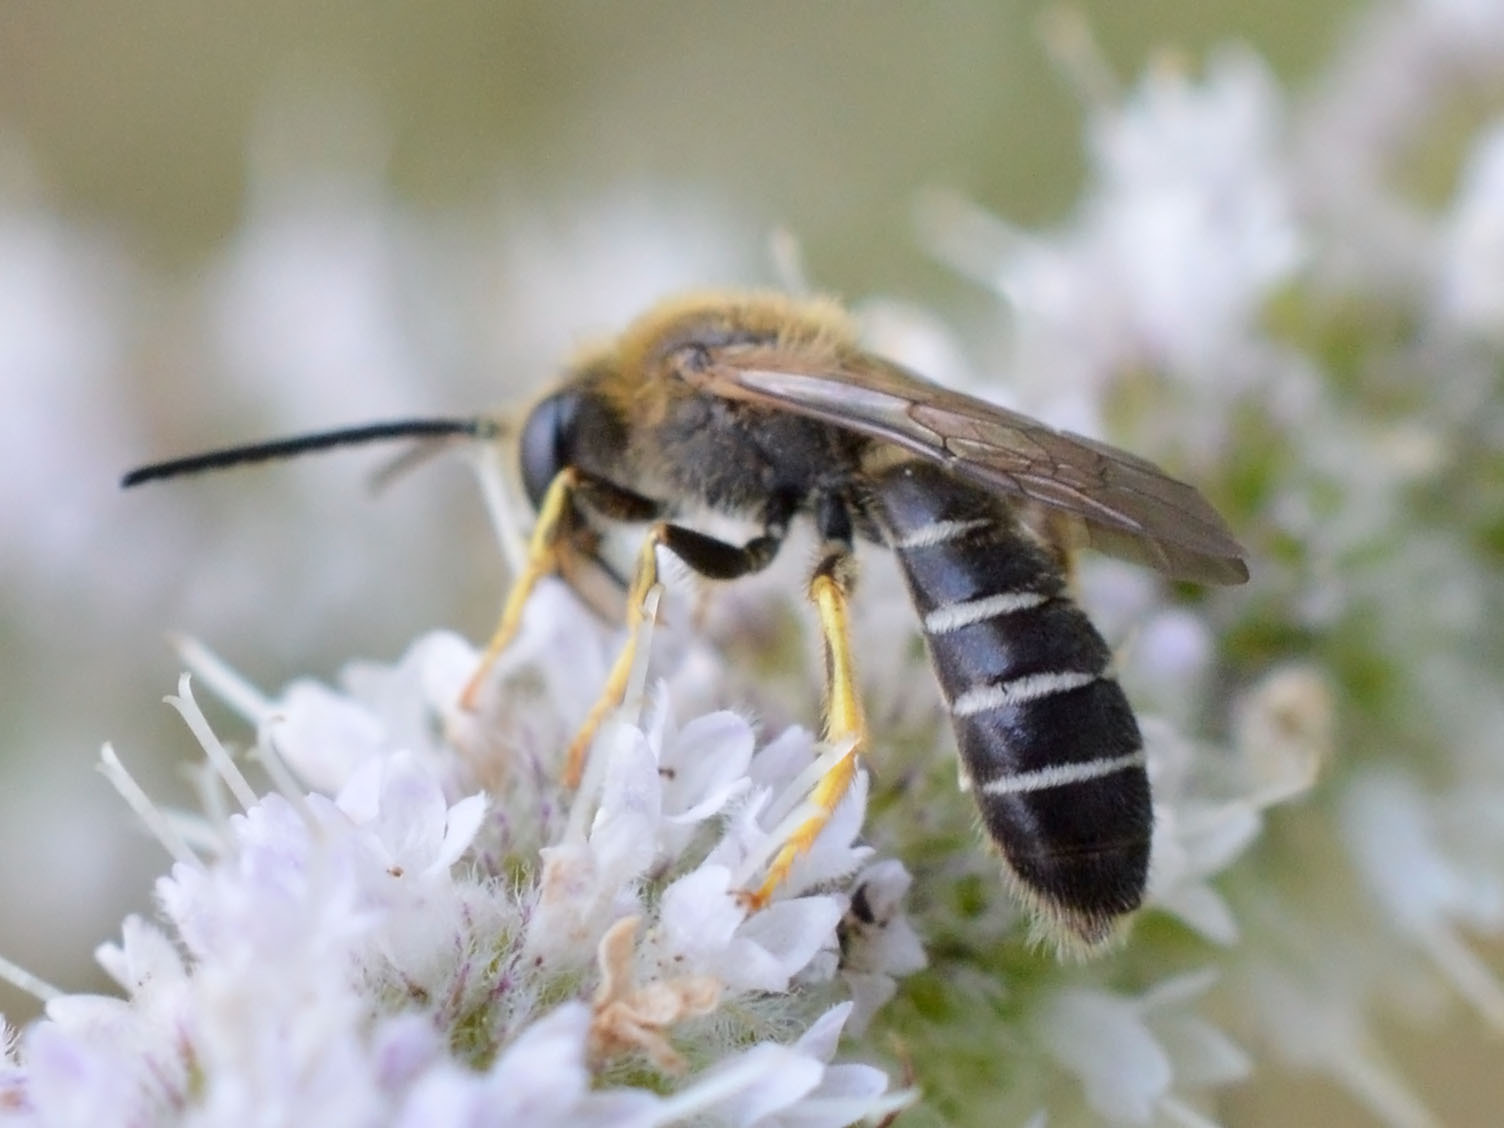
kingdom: Animalia
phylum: Arthropoda
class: Insecta
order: Hymenoptera
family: Halictidae
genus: Halictus
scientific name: Halictus rubicundus
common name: Orange-legged furrow bee
